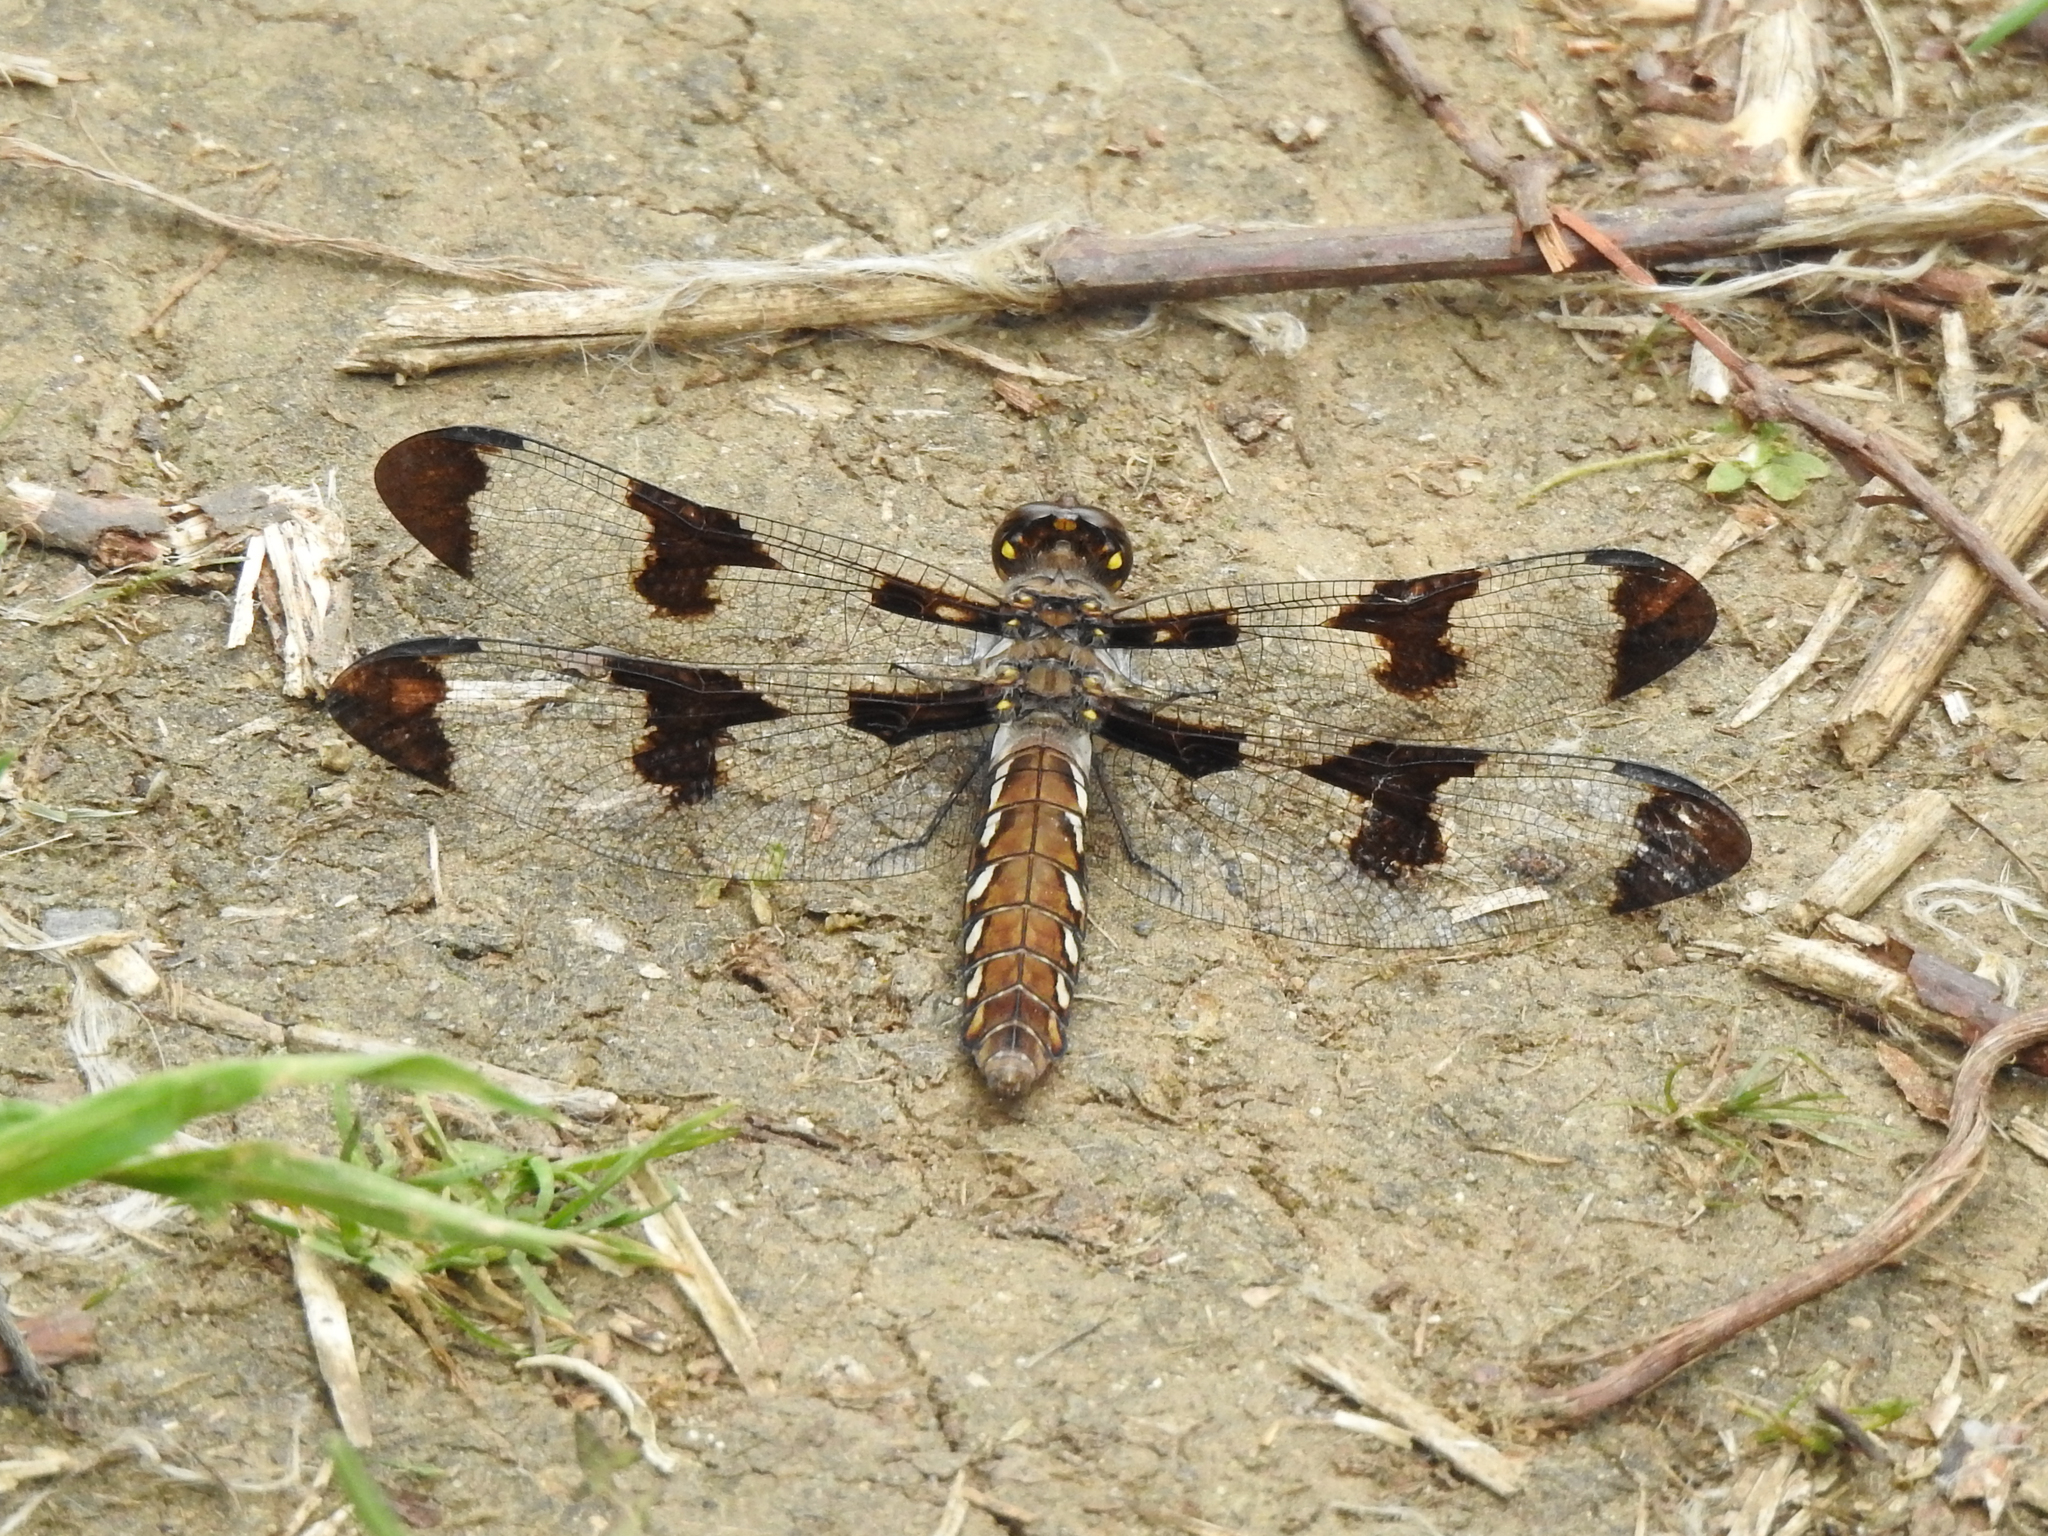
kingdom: Animalia
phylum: Arthropoda
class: Insecta
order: Odonata
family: Libellulidae
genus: Plathemis
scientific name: Plathemis lydia
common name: Common whitetail
